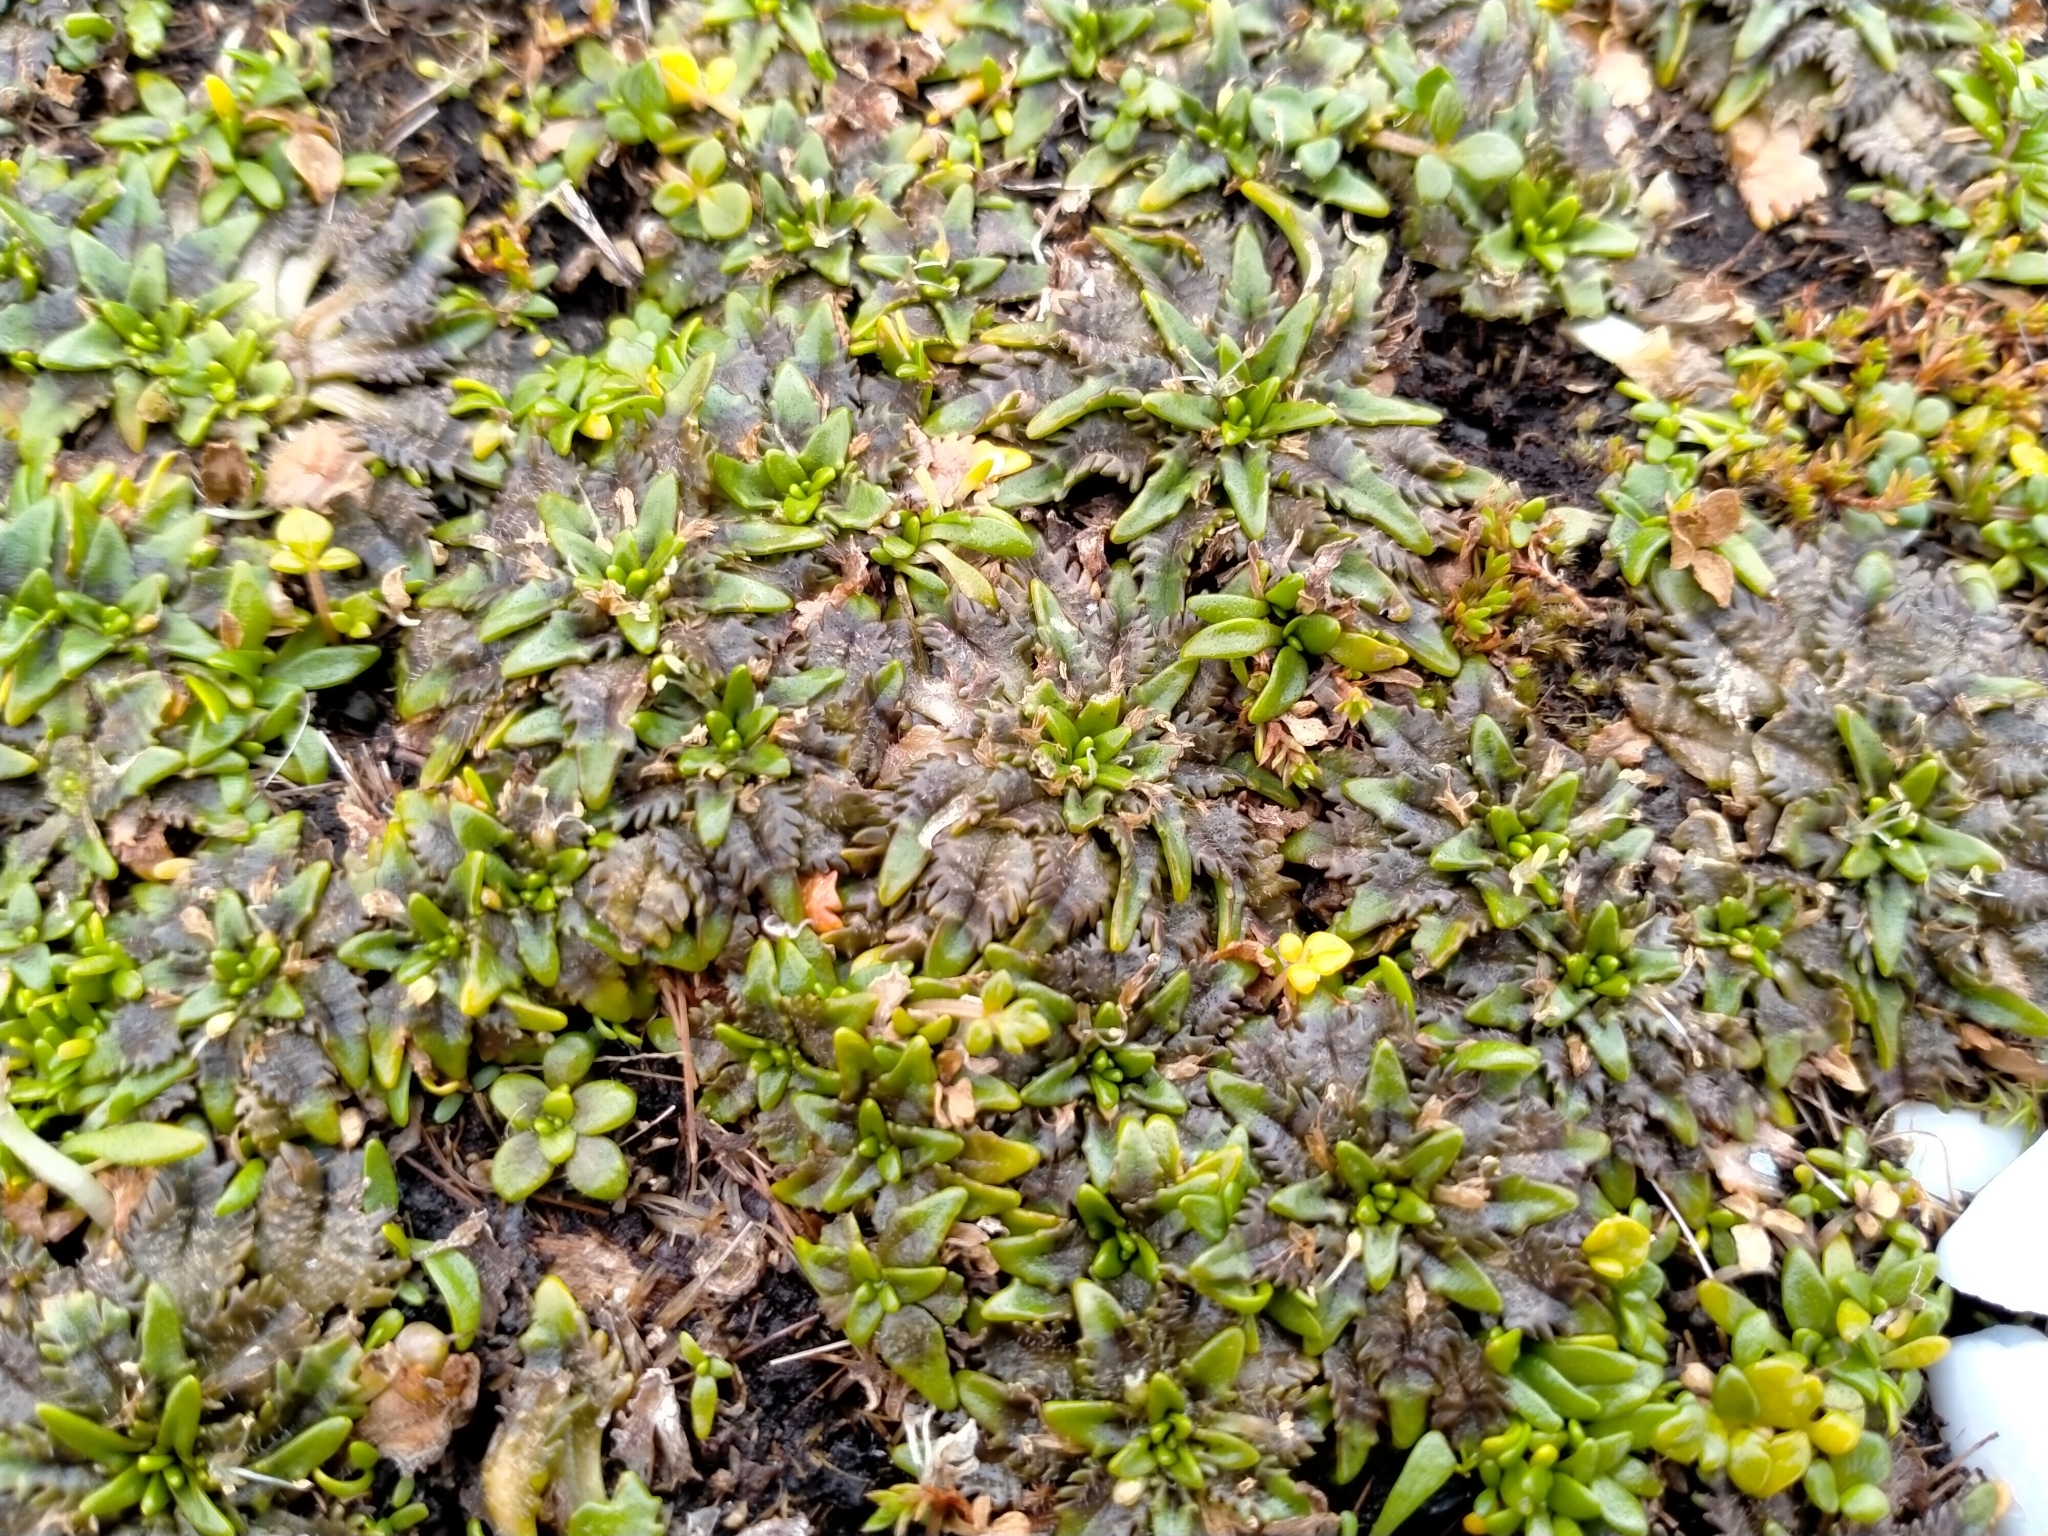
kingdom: Plantae
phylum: Tracheophyta
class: Magnoliopsida
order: Lamiales
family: Plantaginaceae
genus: Plantago
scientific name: Plantago triandra
